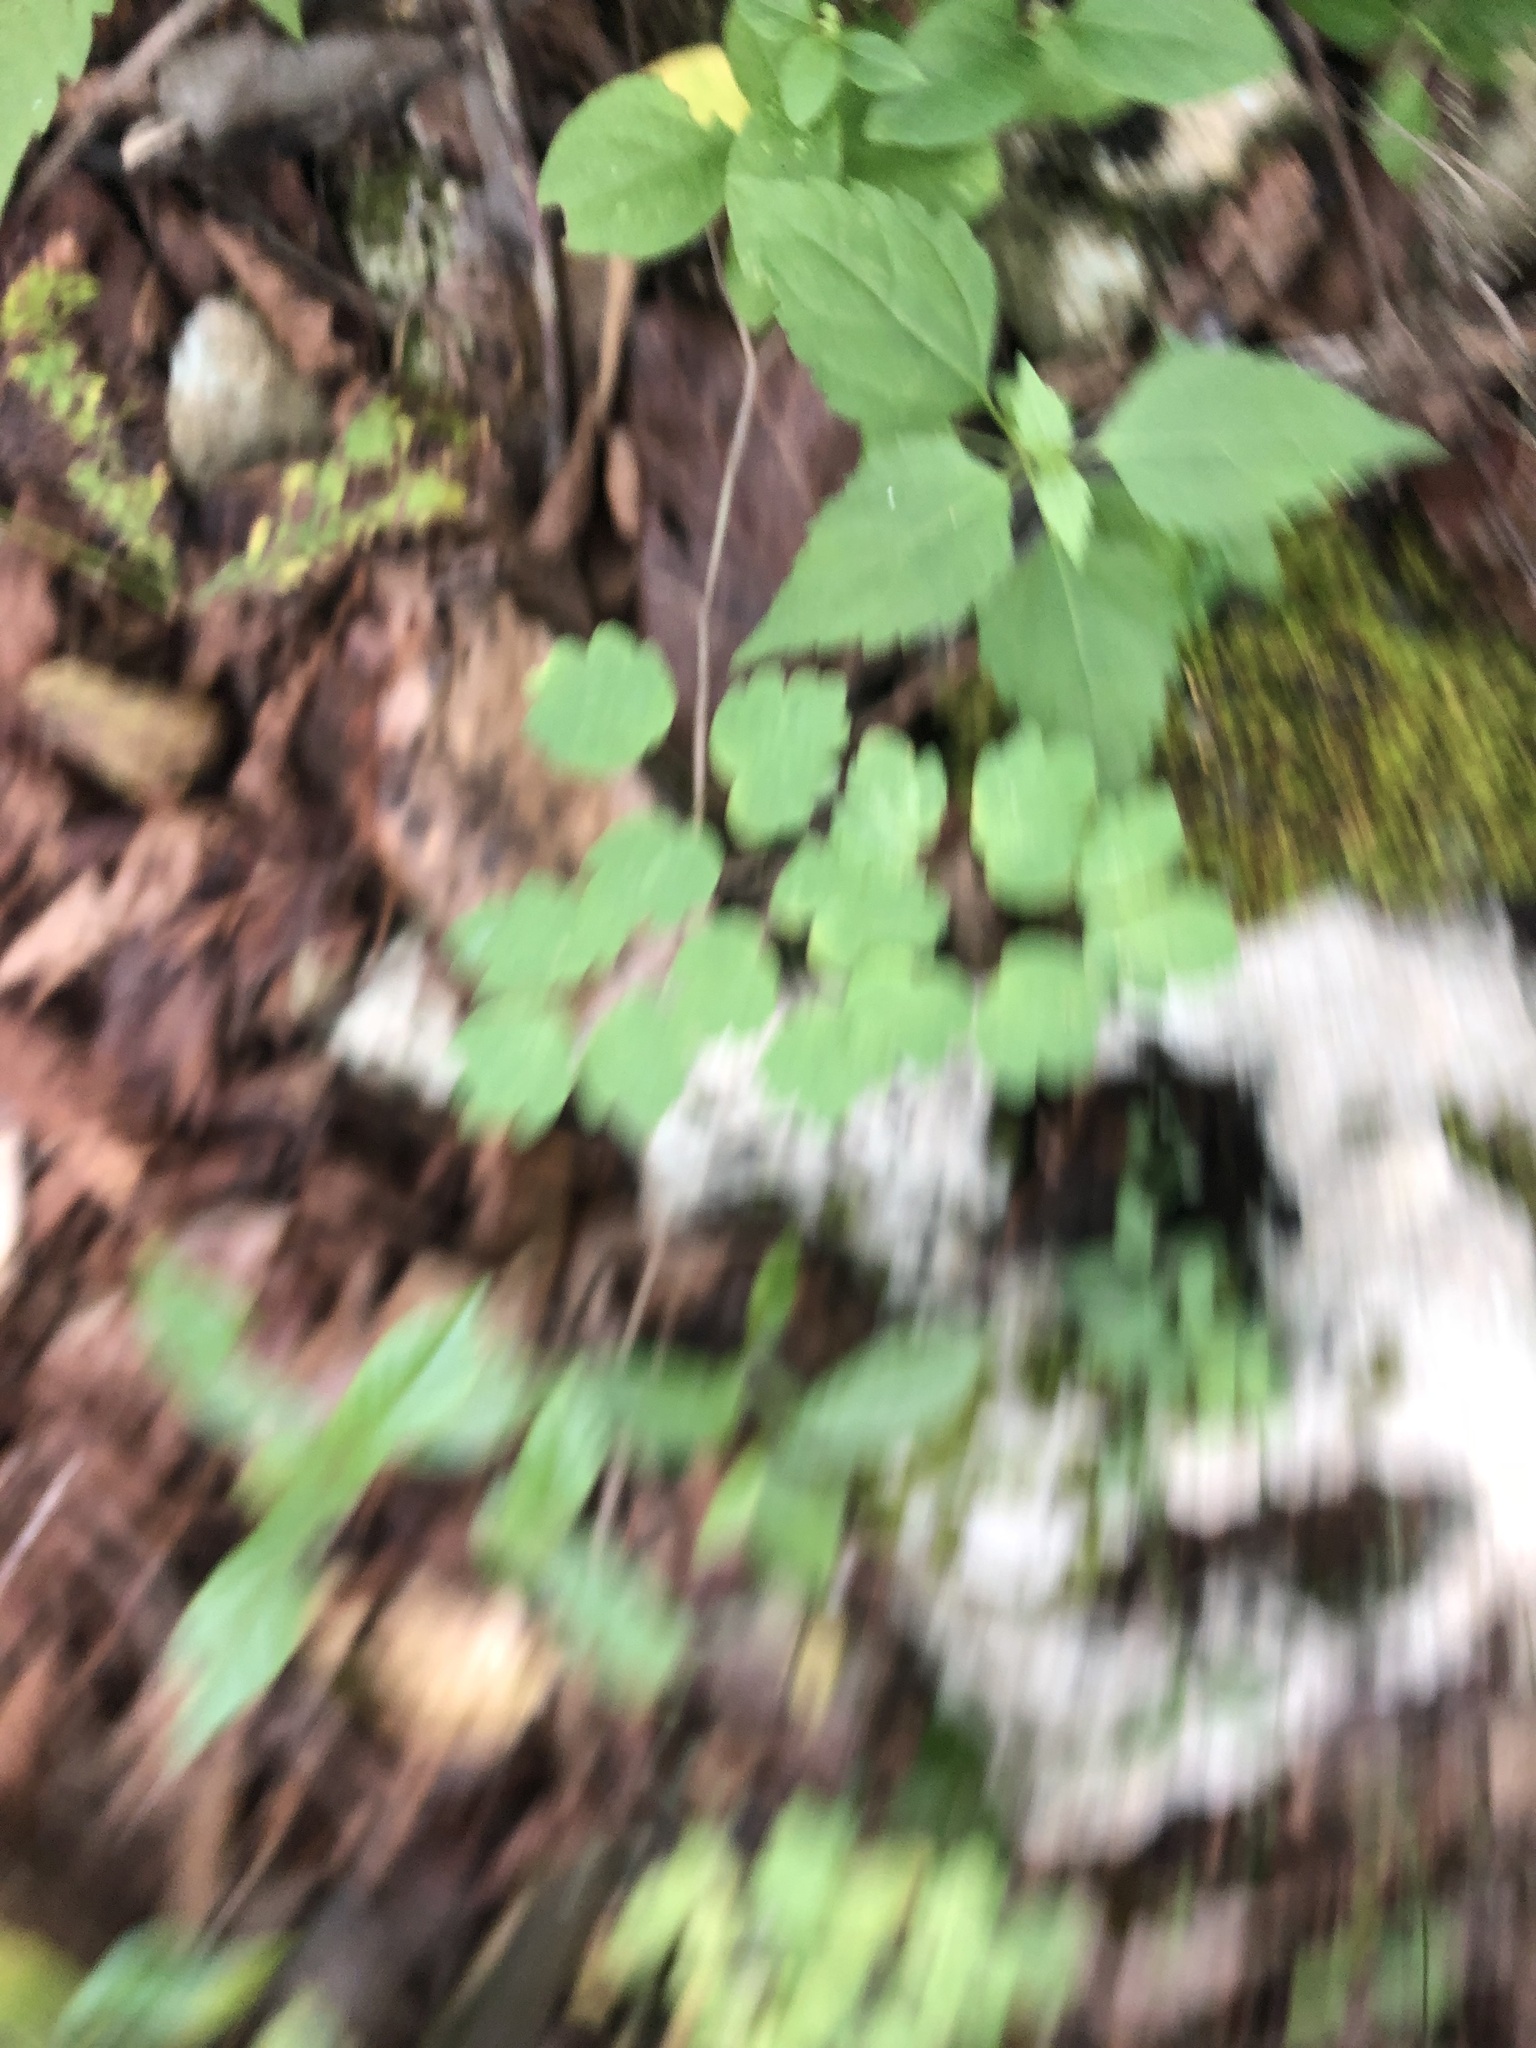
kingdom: Plantae
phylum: Tracheophyta
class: Magnoliopsida
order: Ranunculales
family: Ranunculaceae
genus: Thalictrum
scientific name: Thalictrum thalictroides
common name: Rue-anemone
